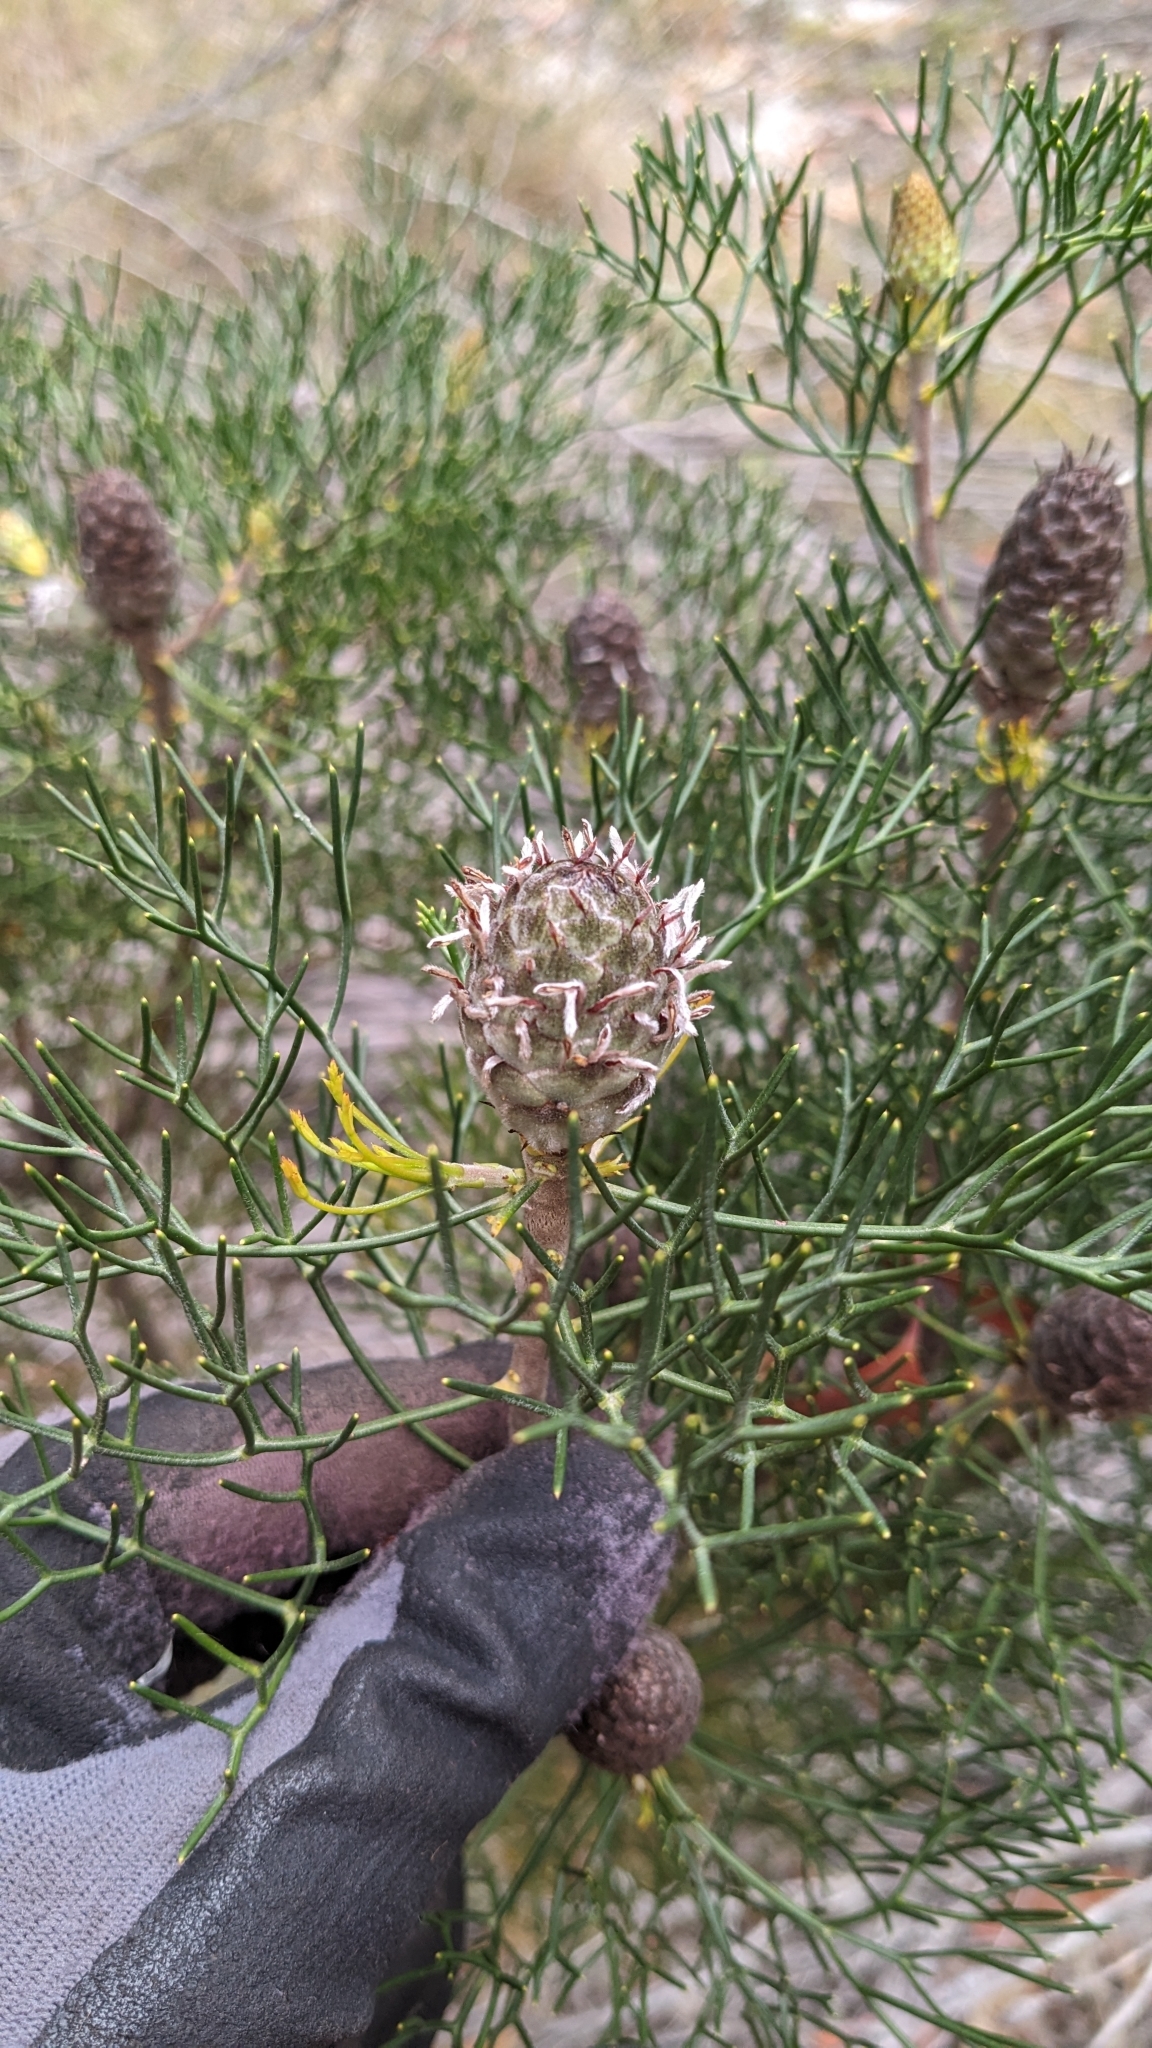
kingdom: Plantae
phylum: Tracheophyta
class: Magnoliopsida
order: Proteales
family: Proteaceae
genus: Petrophile
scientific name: Petrophile pulchella
